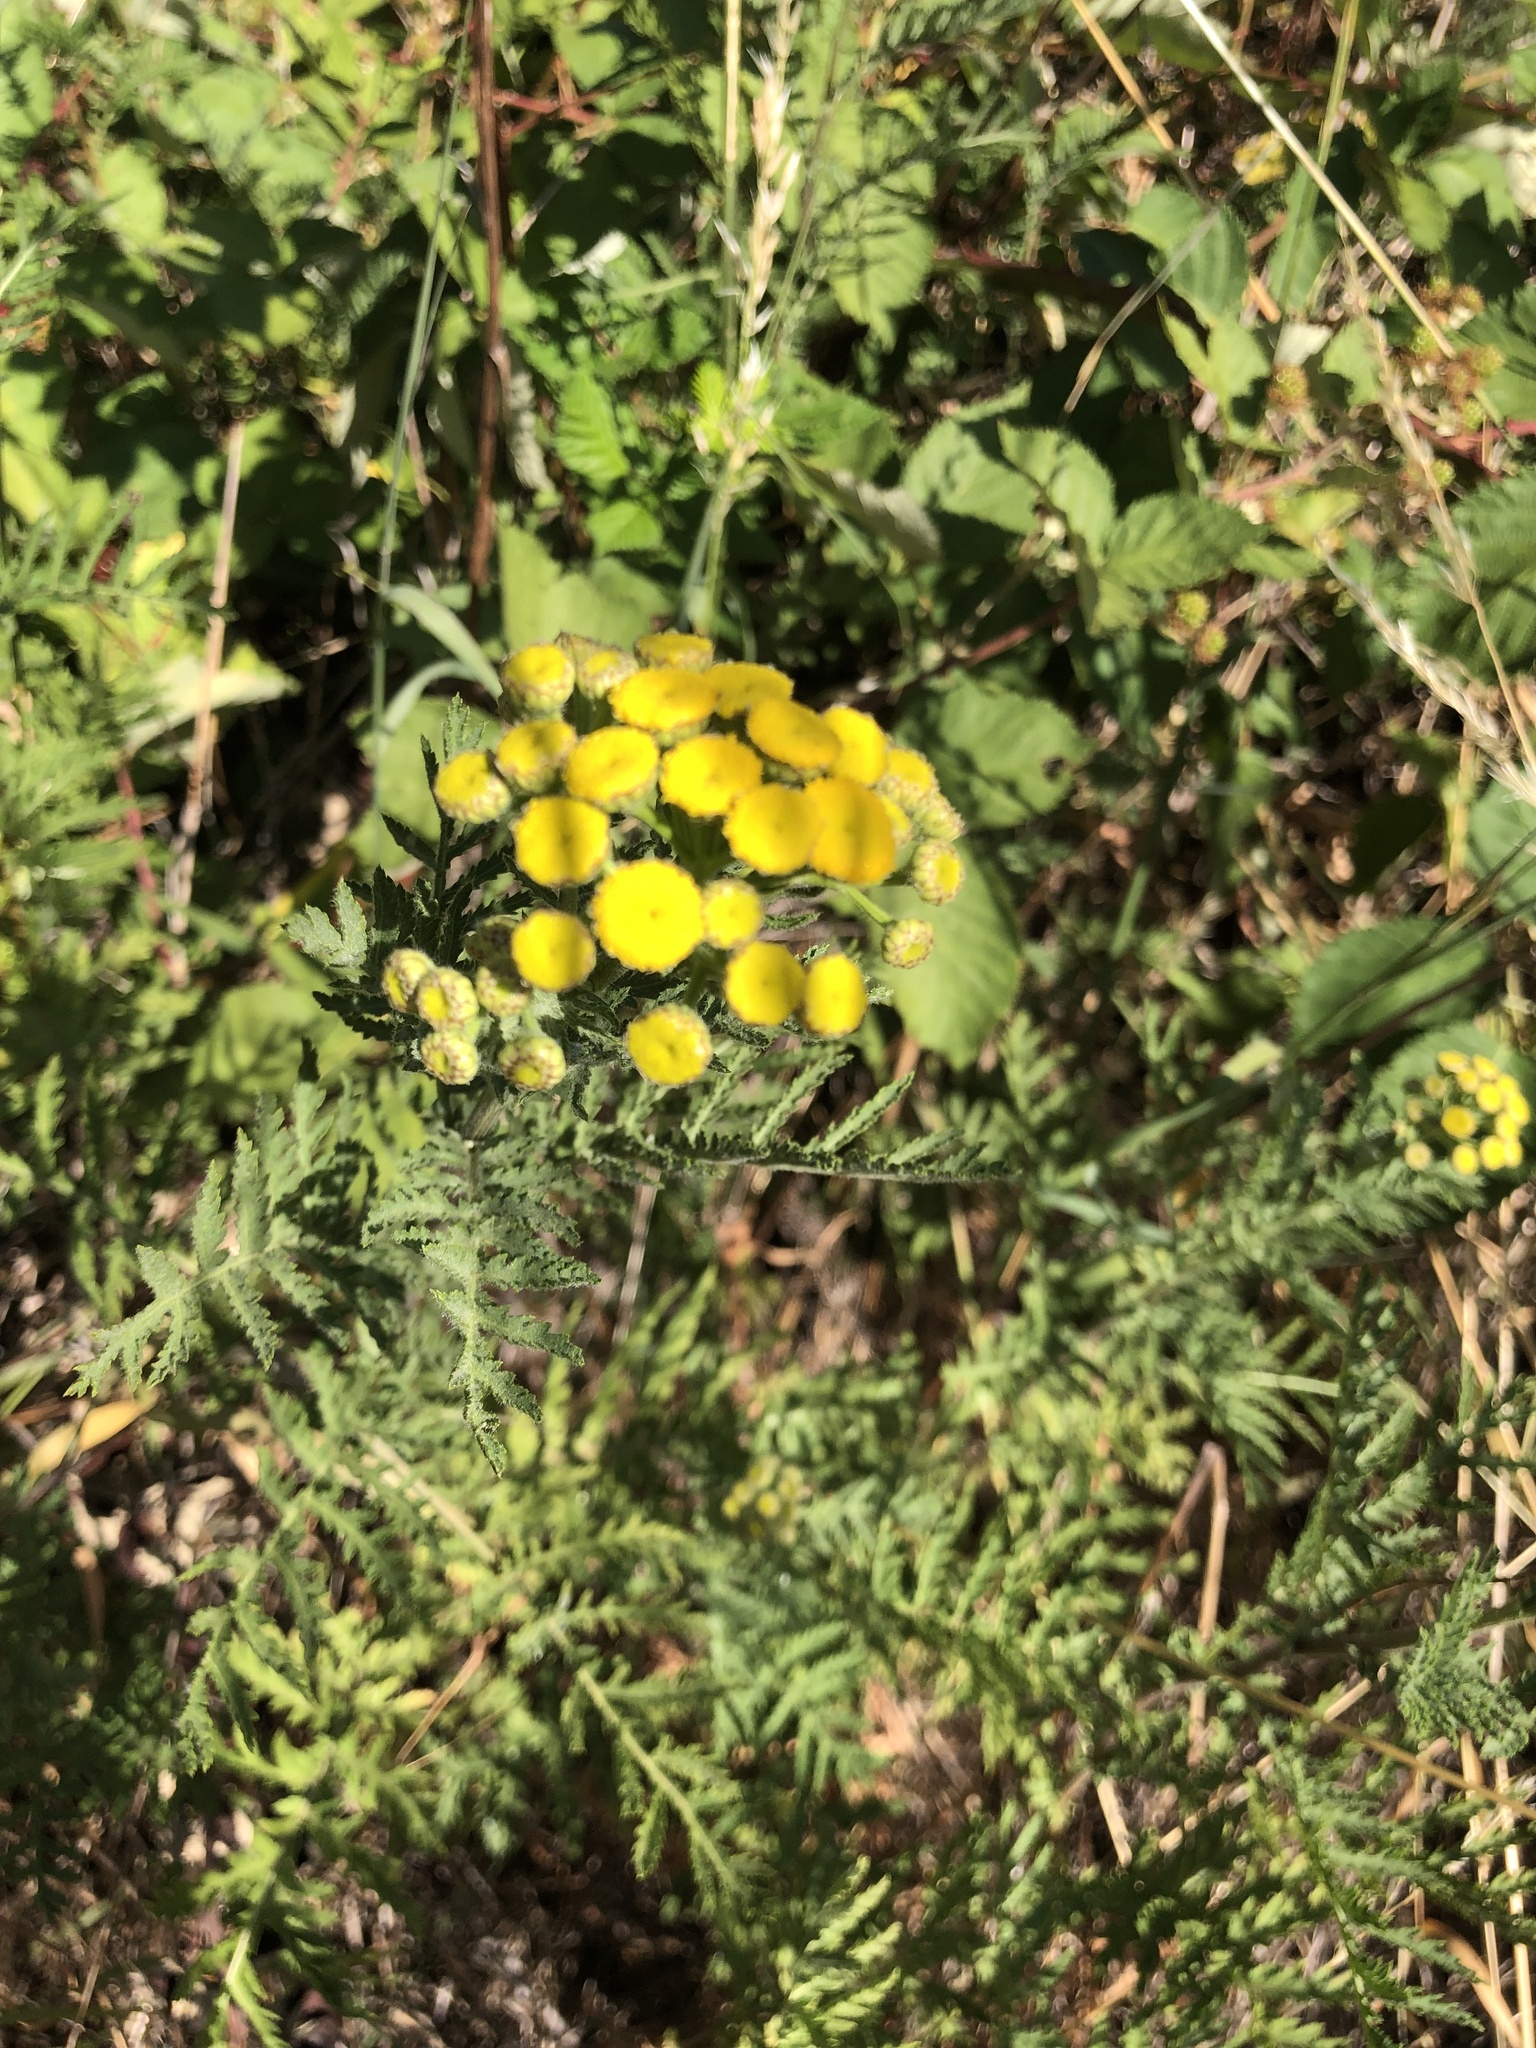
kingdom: Plantae
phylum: Tracheophyta
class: Magnoliopsida
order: Asterales
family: Asteraceae
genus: Tanacetum
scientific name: Tanacetum vulgare
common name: Common tansy
